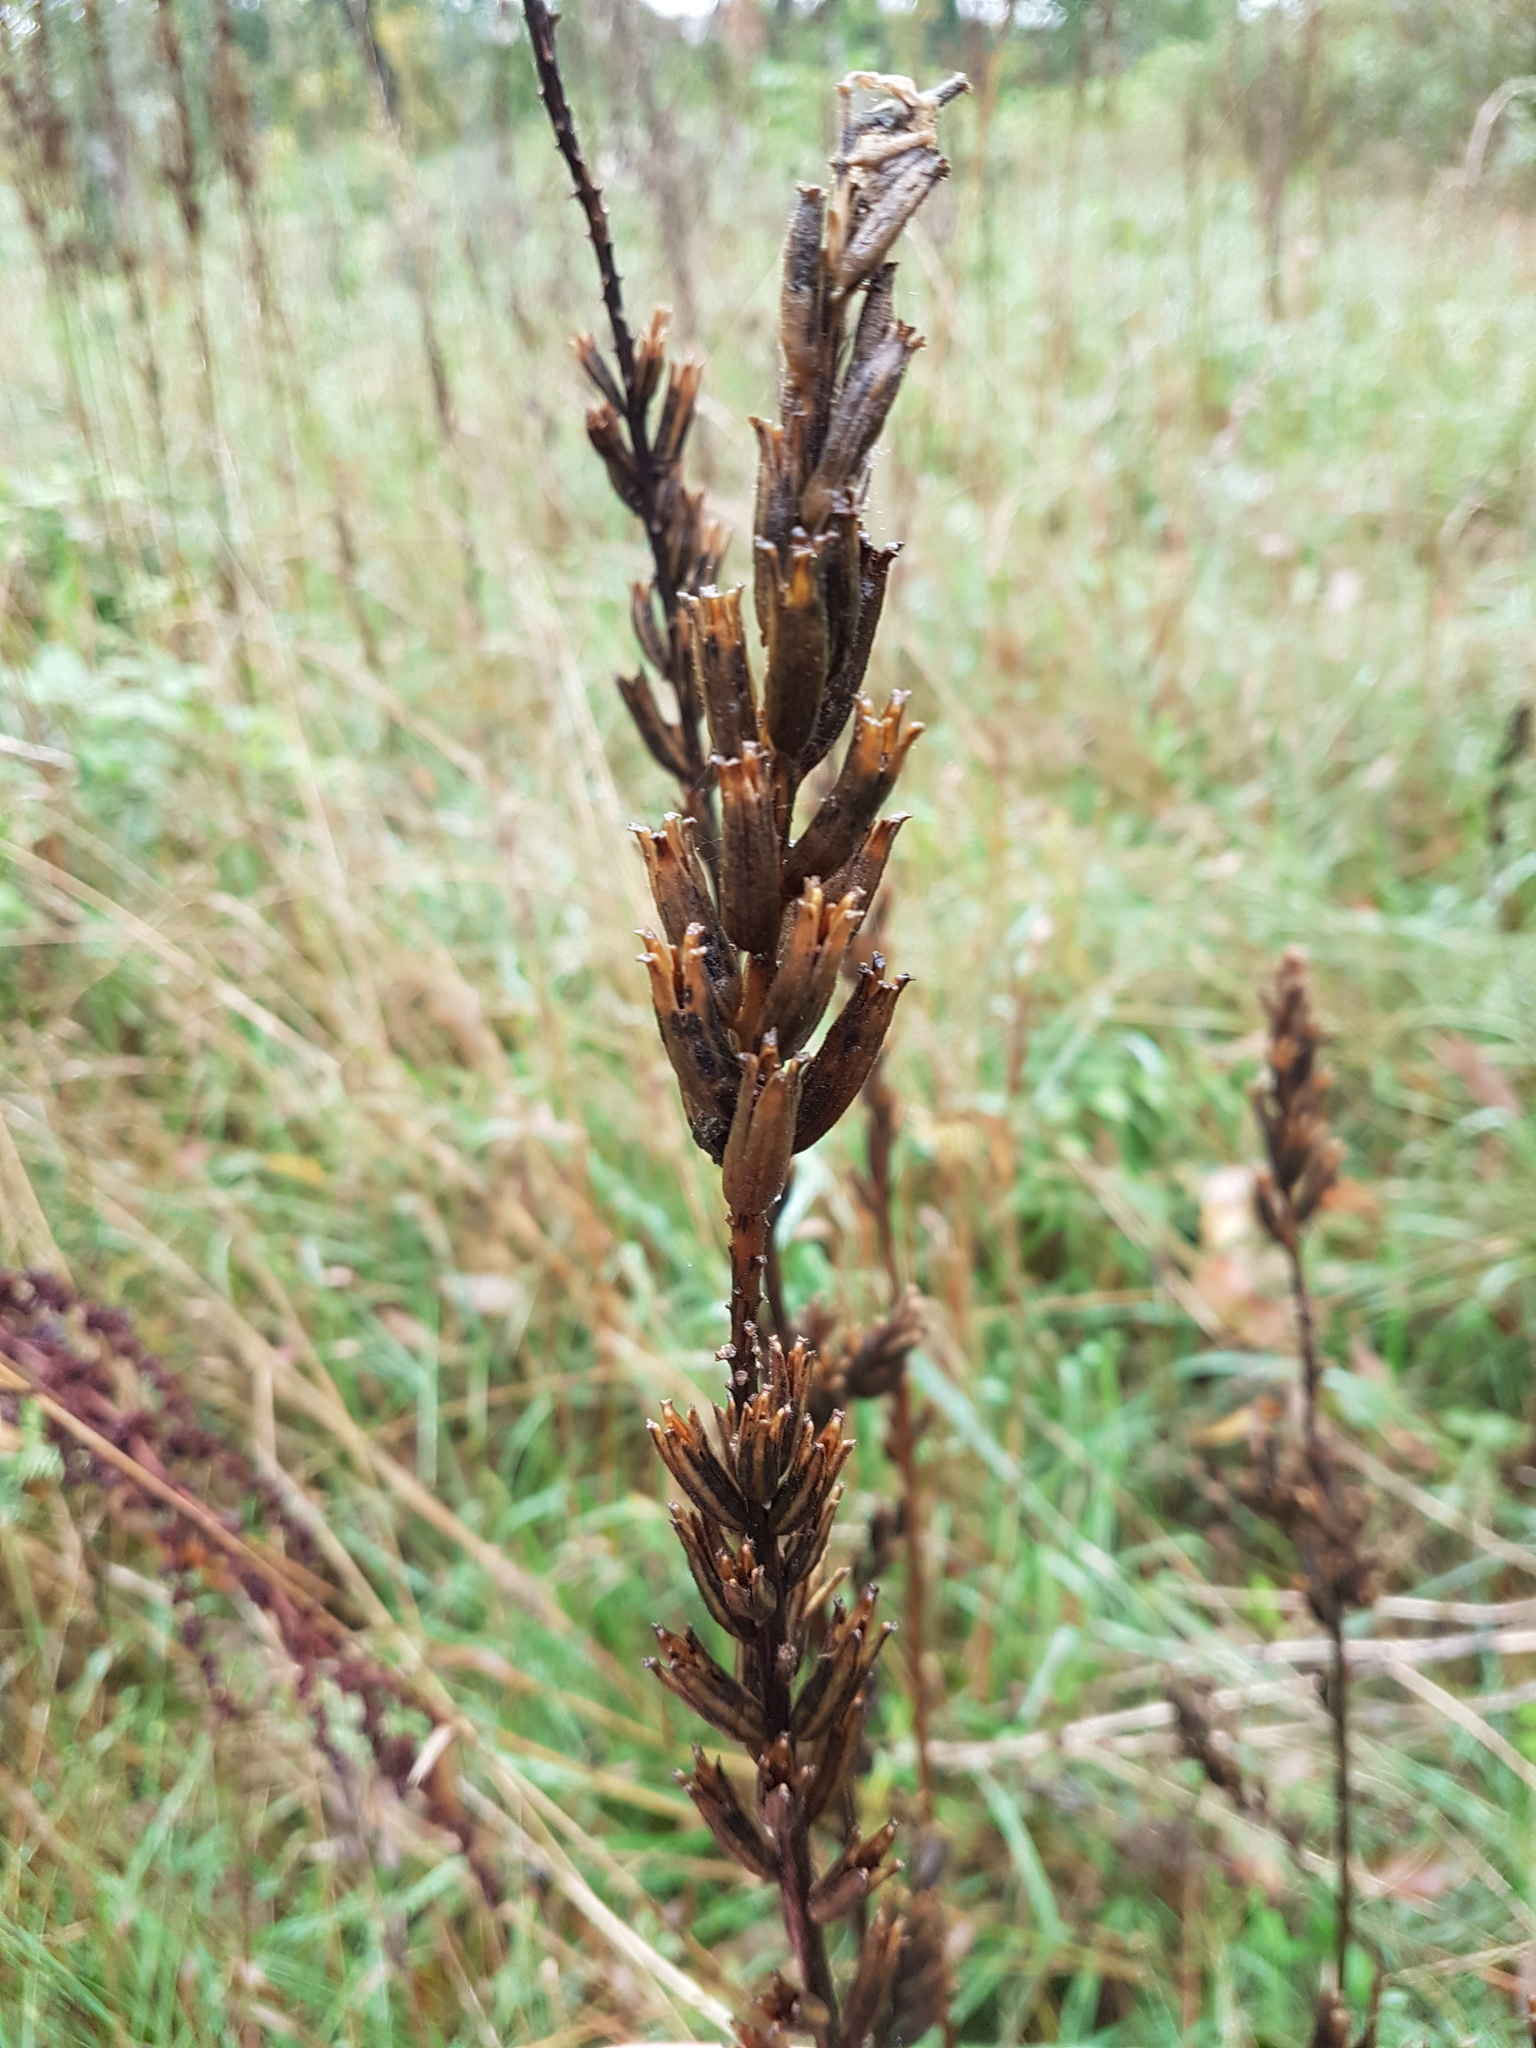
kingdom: Plantae
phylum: Tracheophyta
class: Magnoliopsida
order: Myrtales
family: Onagraceae
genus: Oenothera
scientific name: Oenothera biennis
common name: Common evening-primrose
